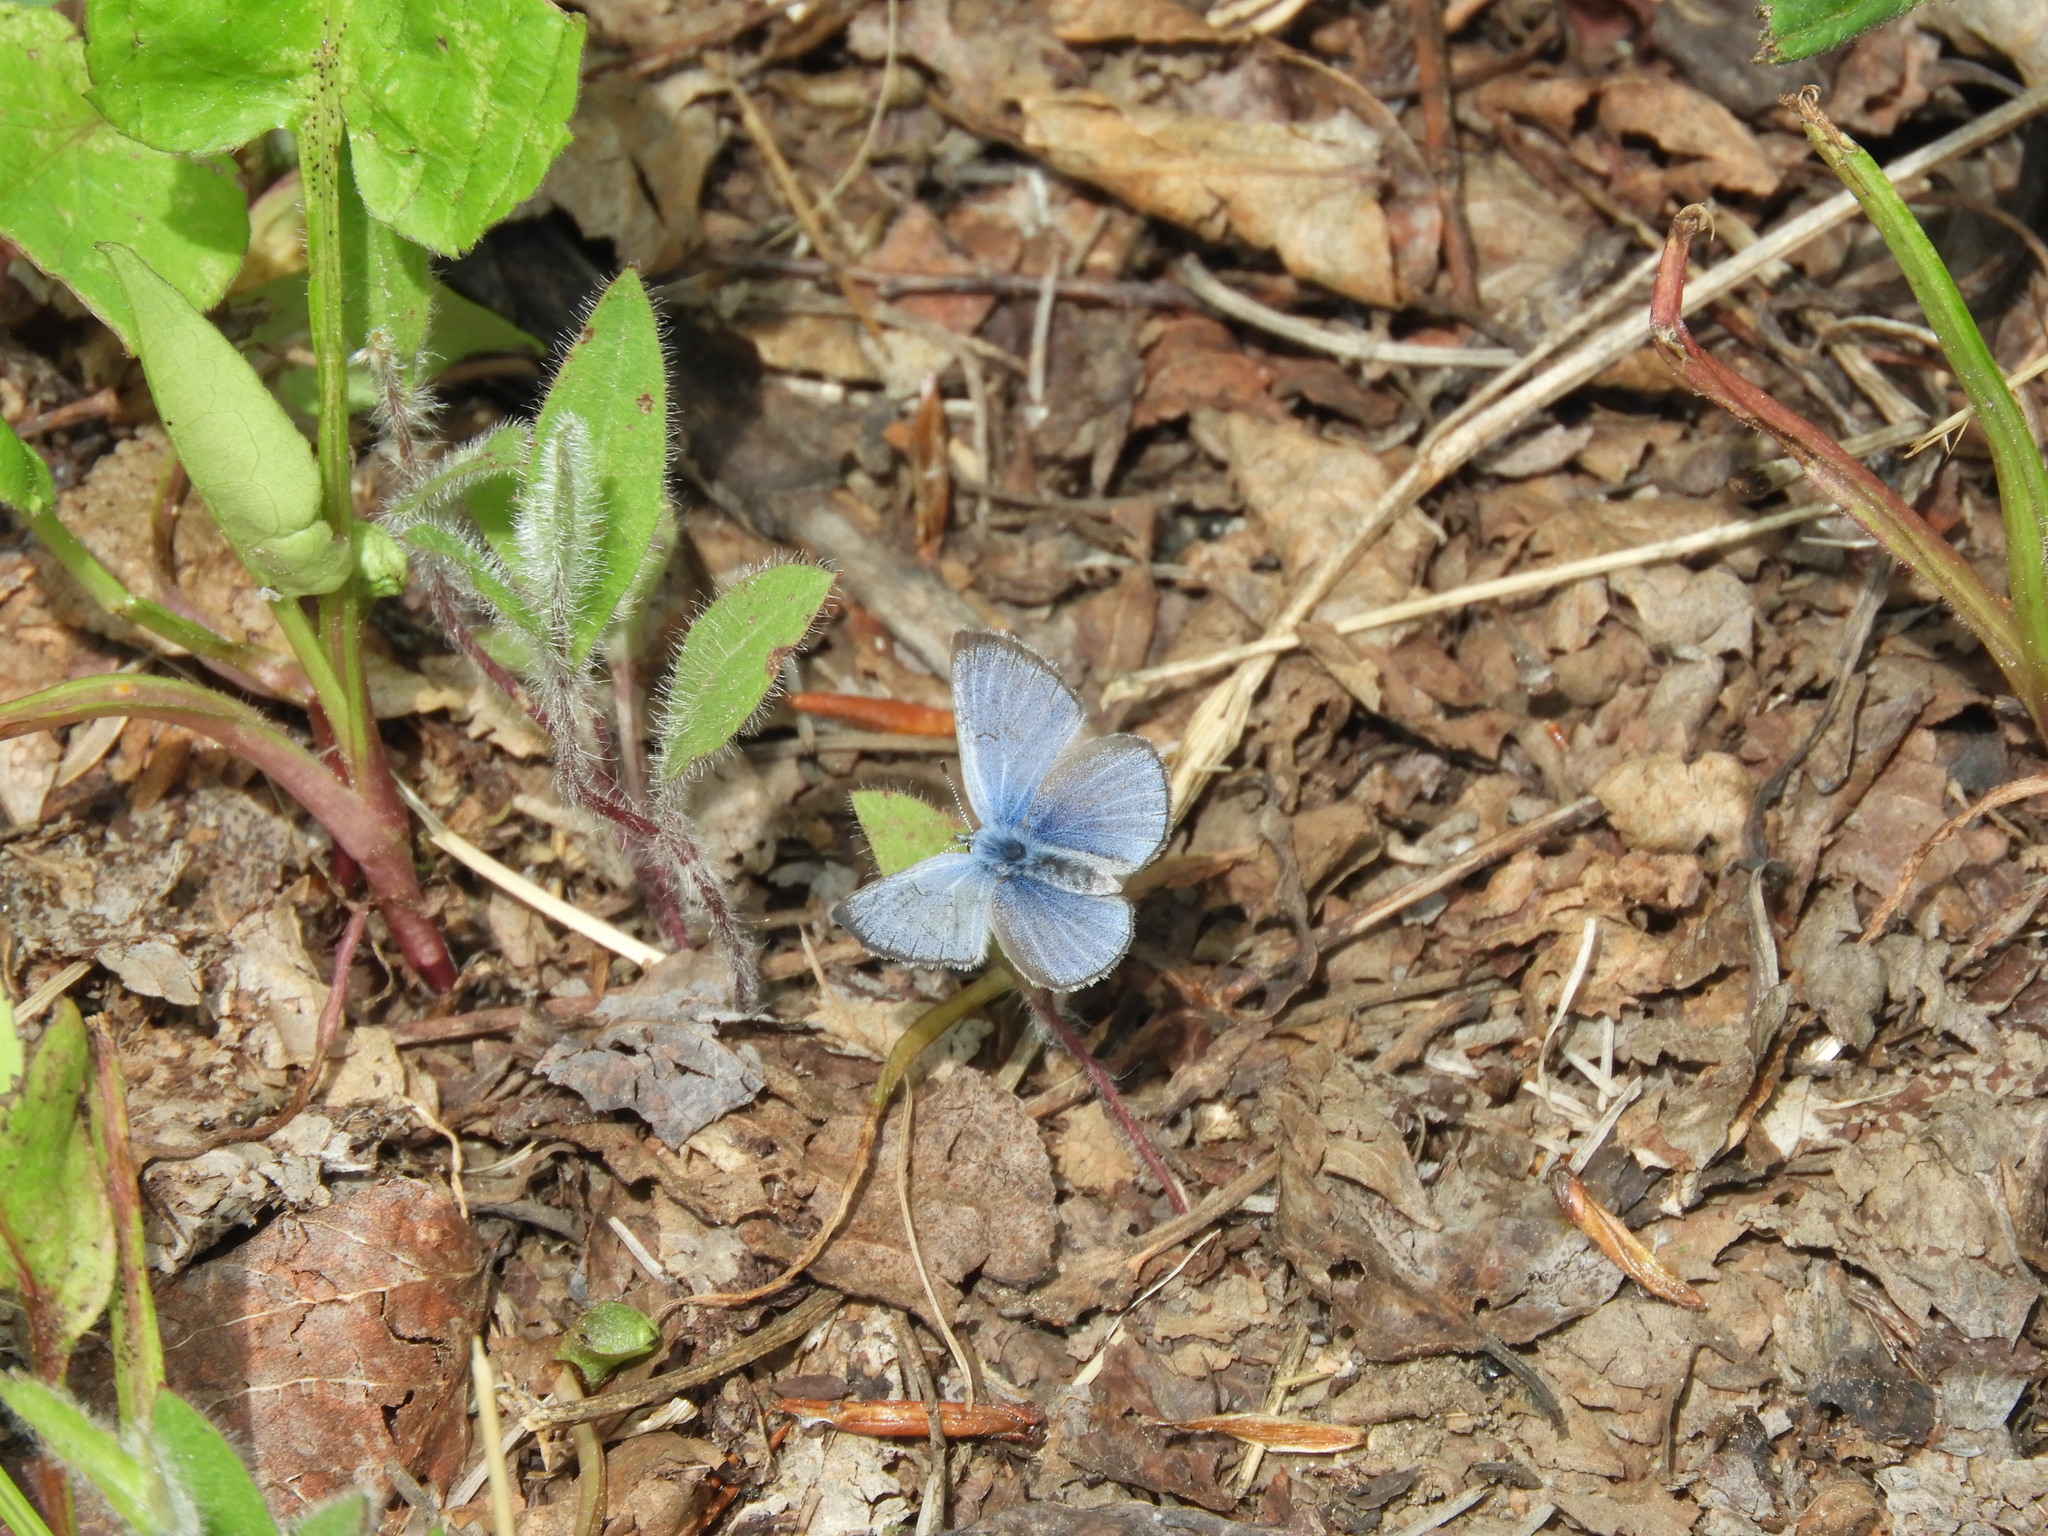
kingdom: Animalia
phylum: Arthropoda
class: Insecta
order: Lepidoptera
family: Lycaenidae
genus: Glaucopsyche
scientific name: Glaucopsyche lygdamus
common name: Silvery blue
